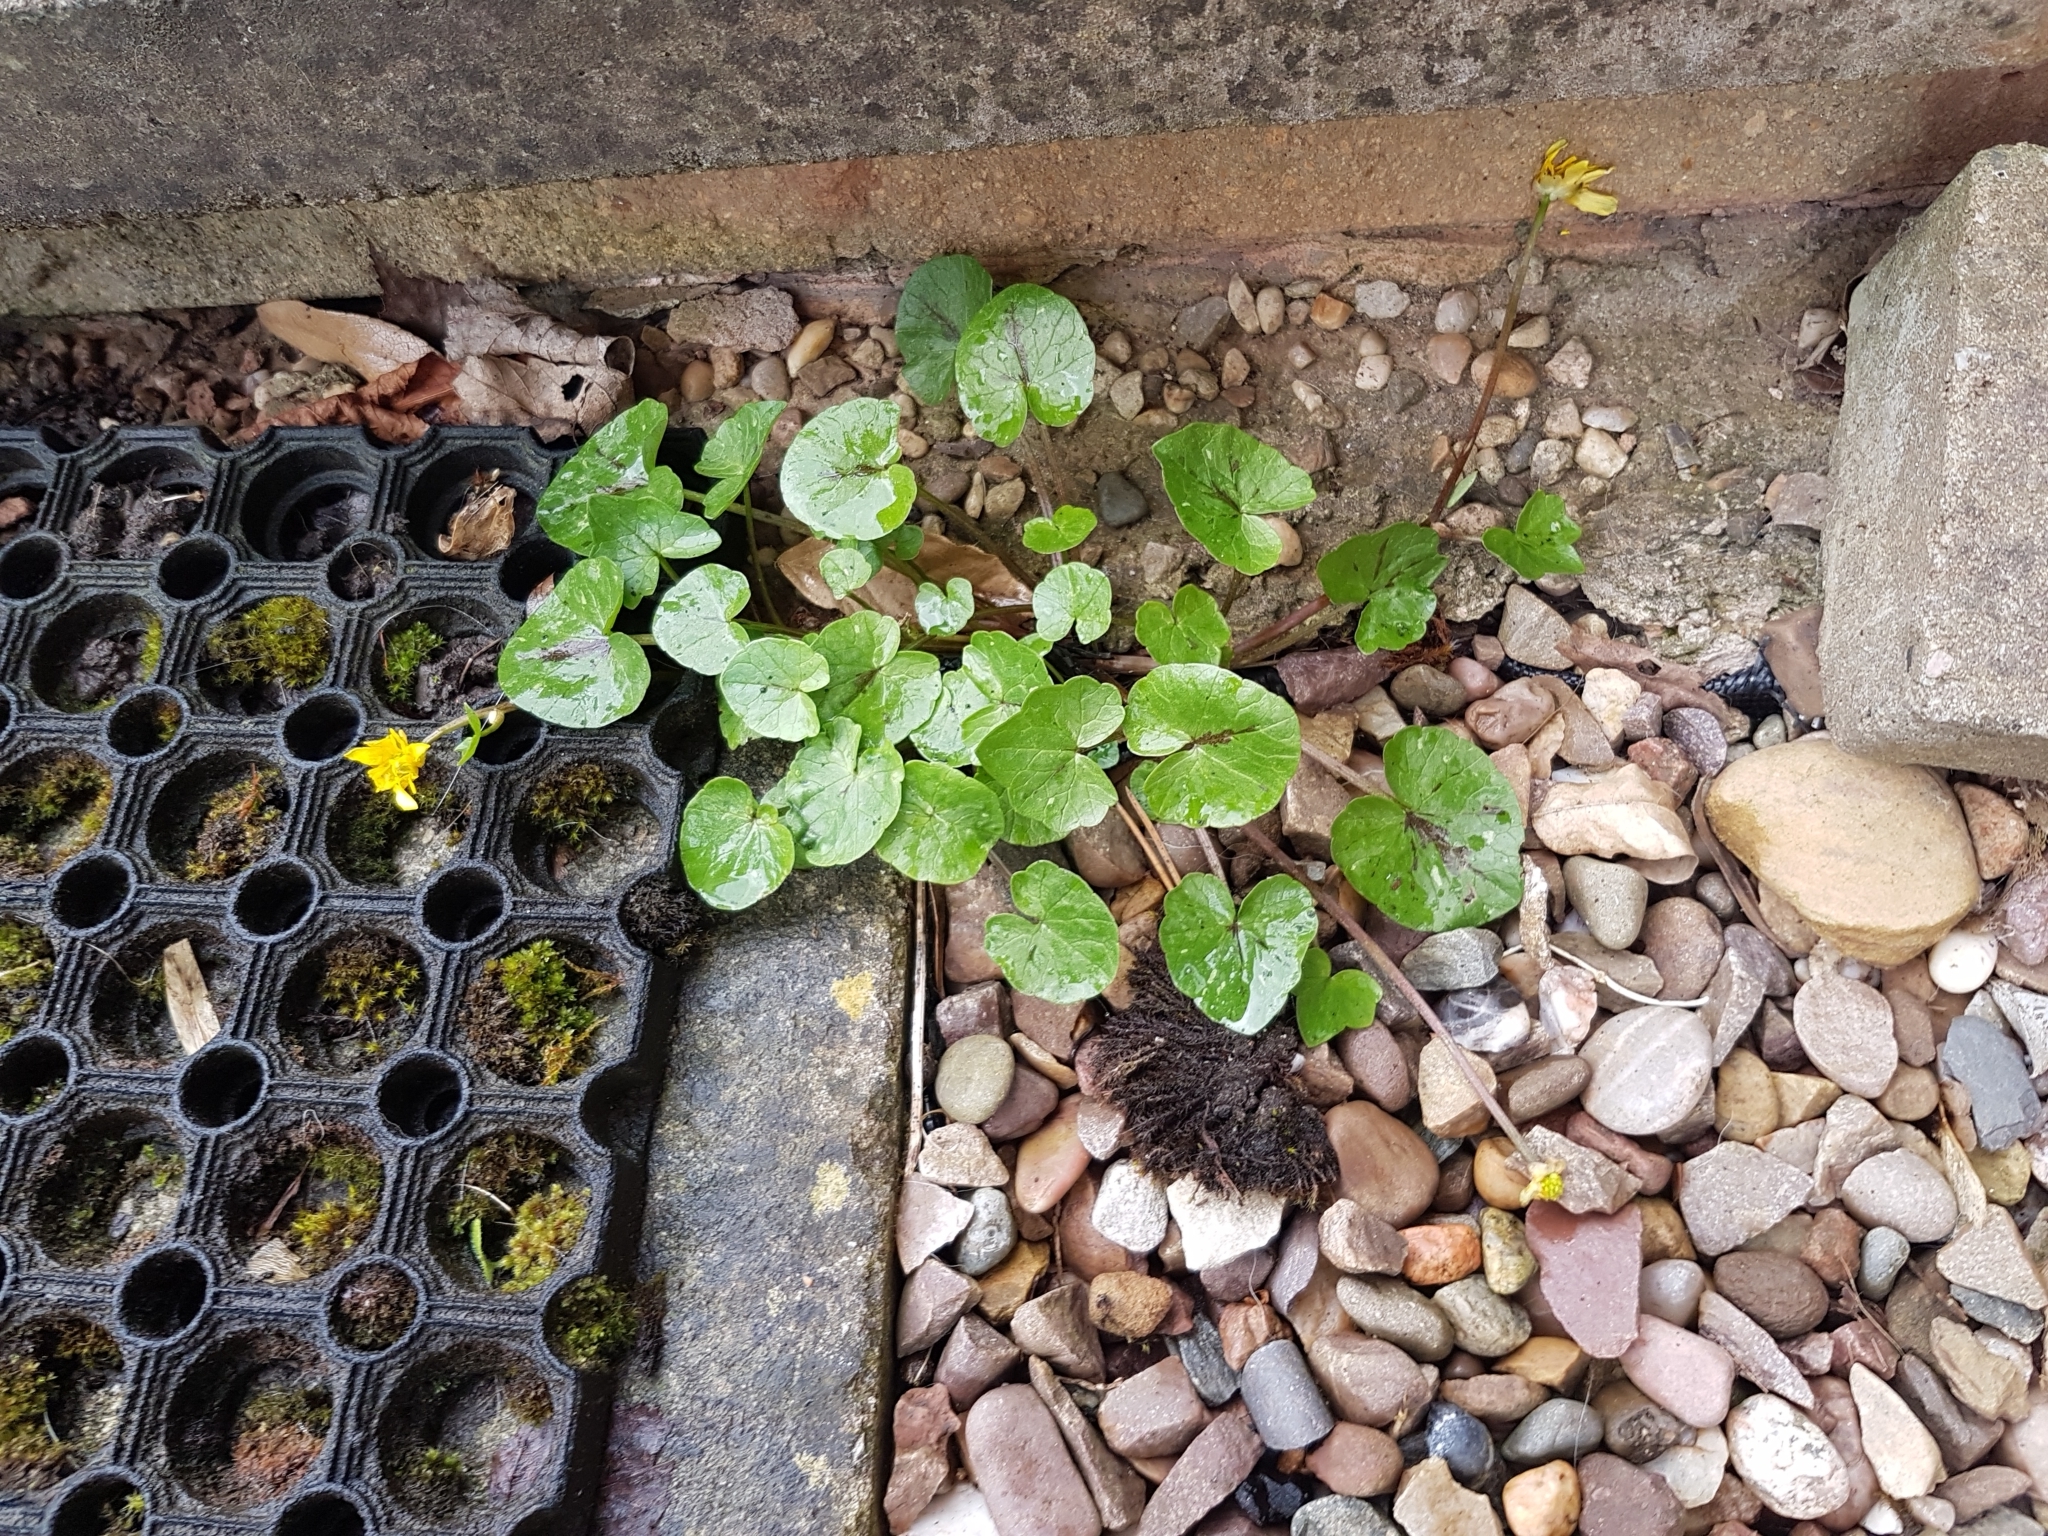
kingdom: Plantae
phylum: Tracheophyta
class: Magnoliopsida
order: Ranunculales
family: Ranunculaceae
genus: Ficaria
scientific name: Ficaria verna
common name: Lesser celandine
